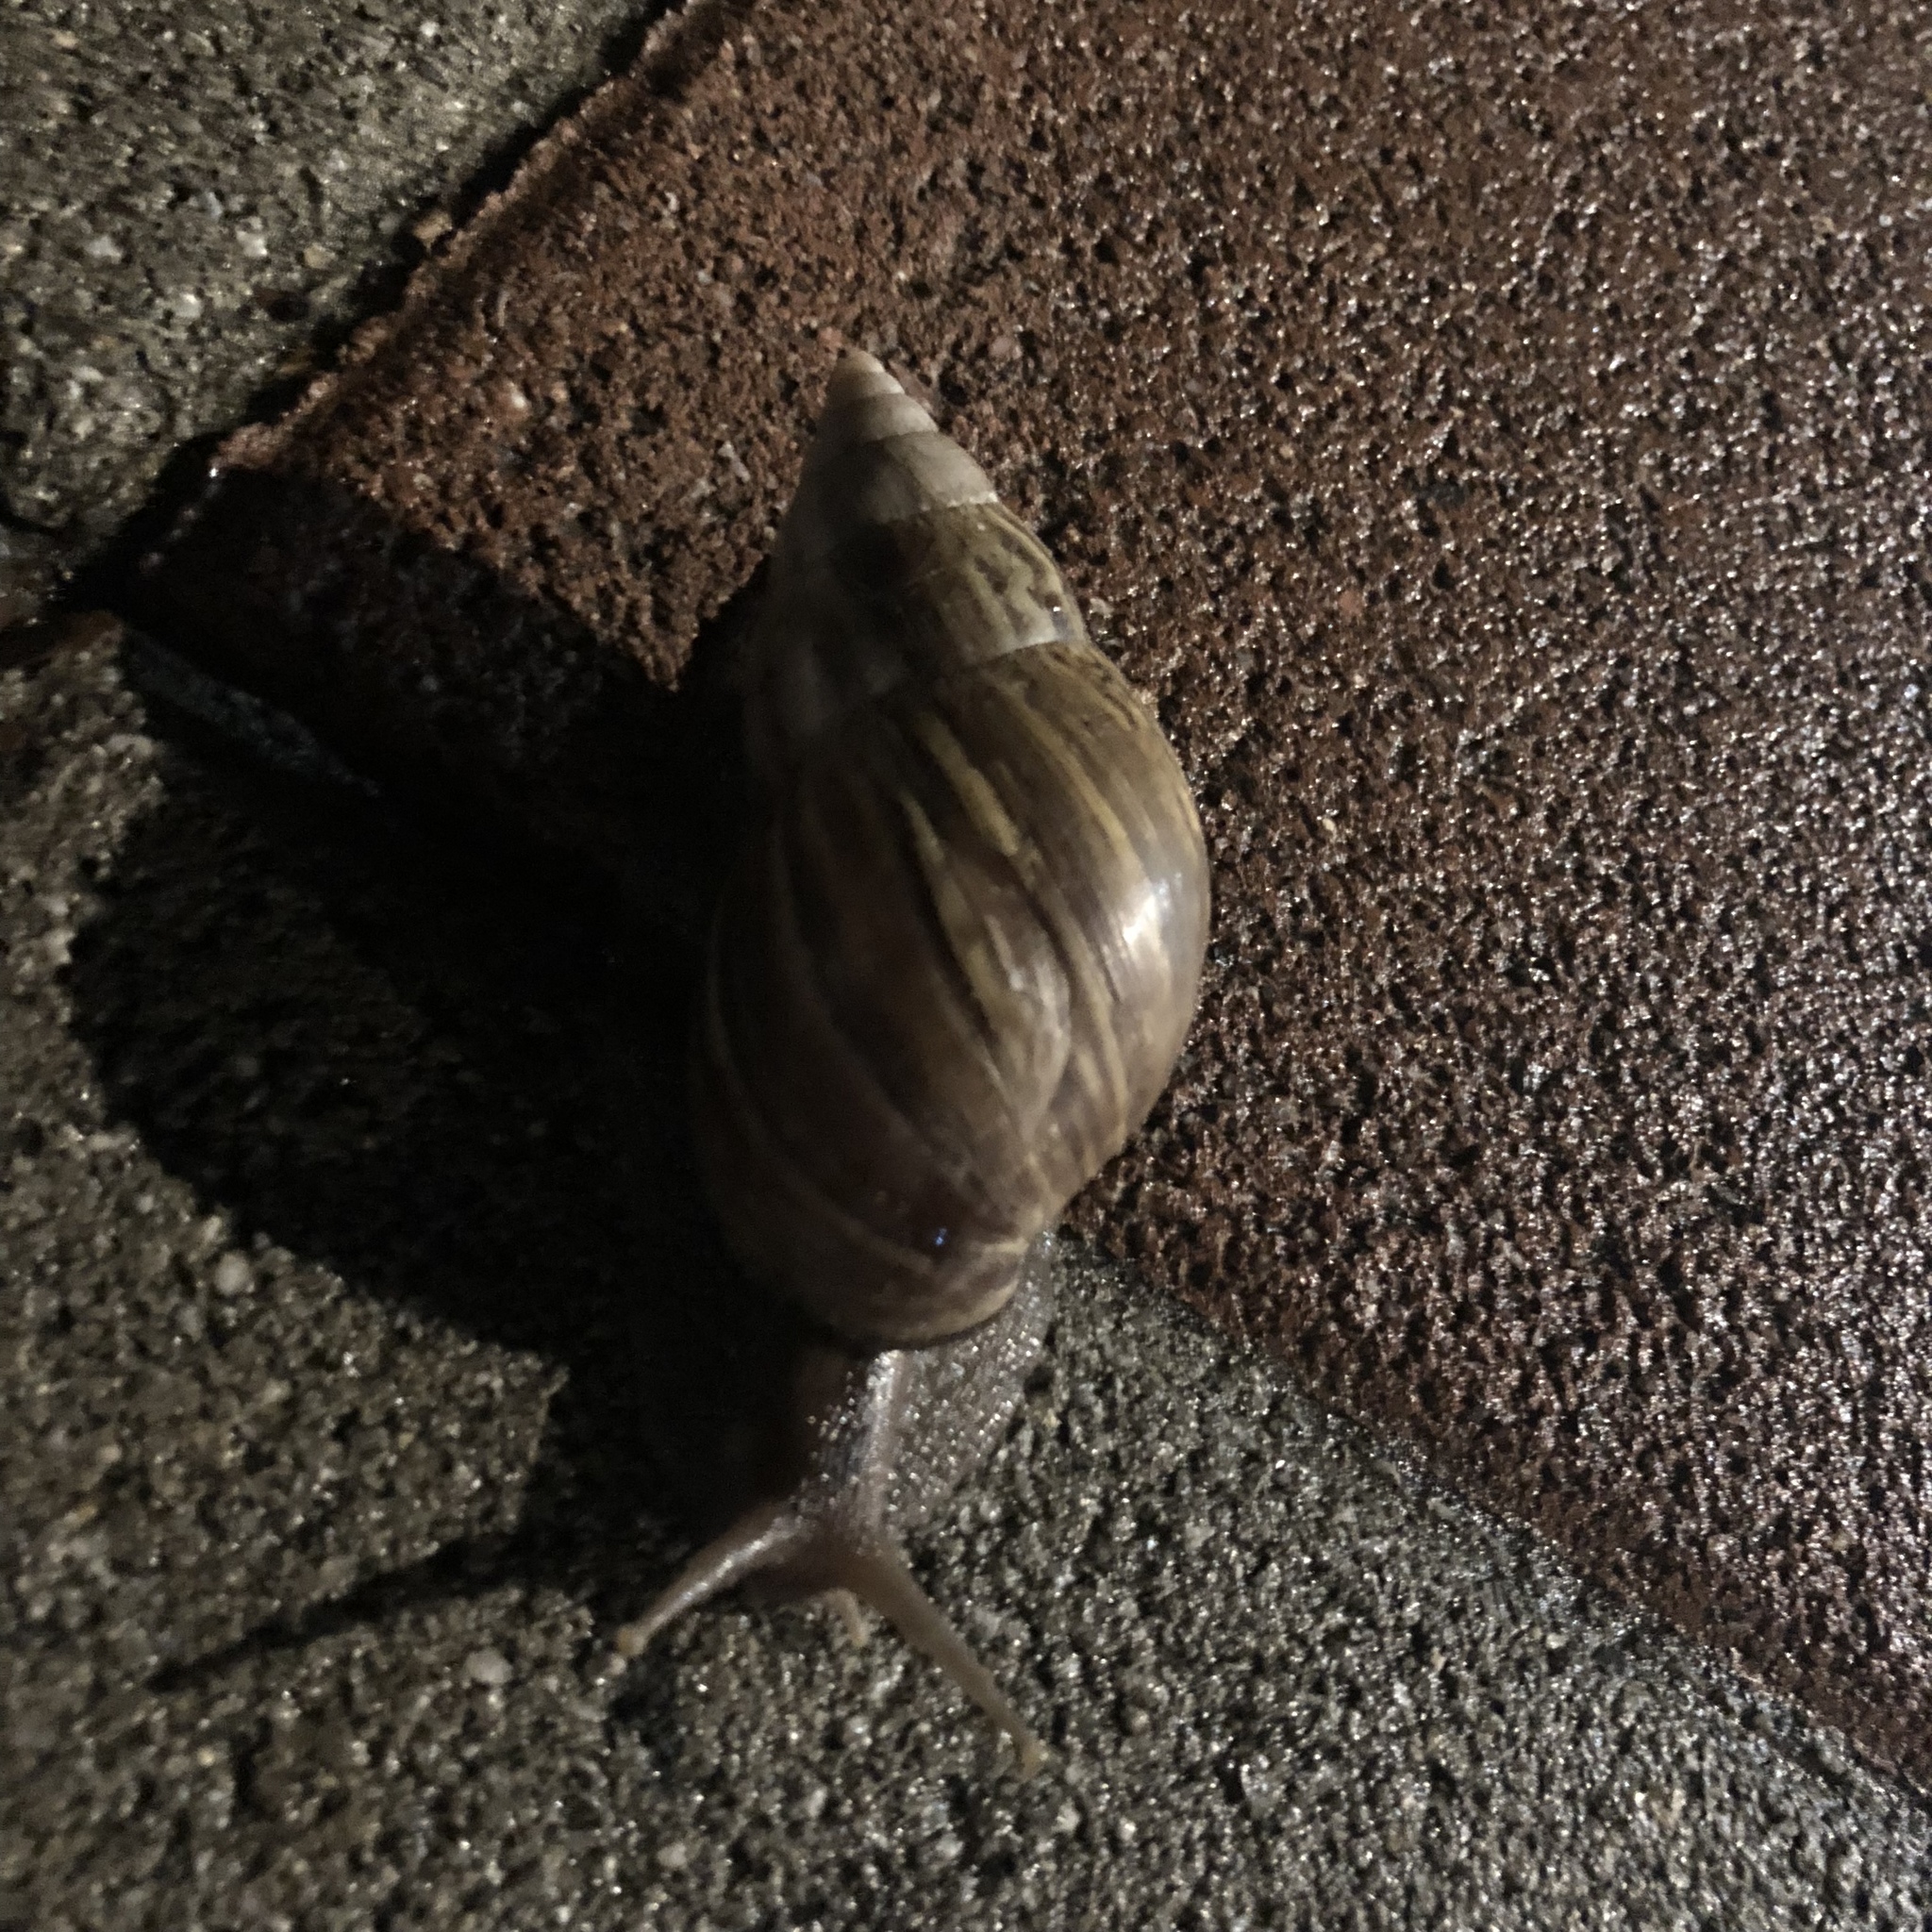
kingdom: Animalia
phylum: Mollusca
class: Gastropoda
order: Stylommatophora
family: Achatinidae
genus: Lissachatina
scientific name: Lissachatina fulica
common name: Giant african snail
